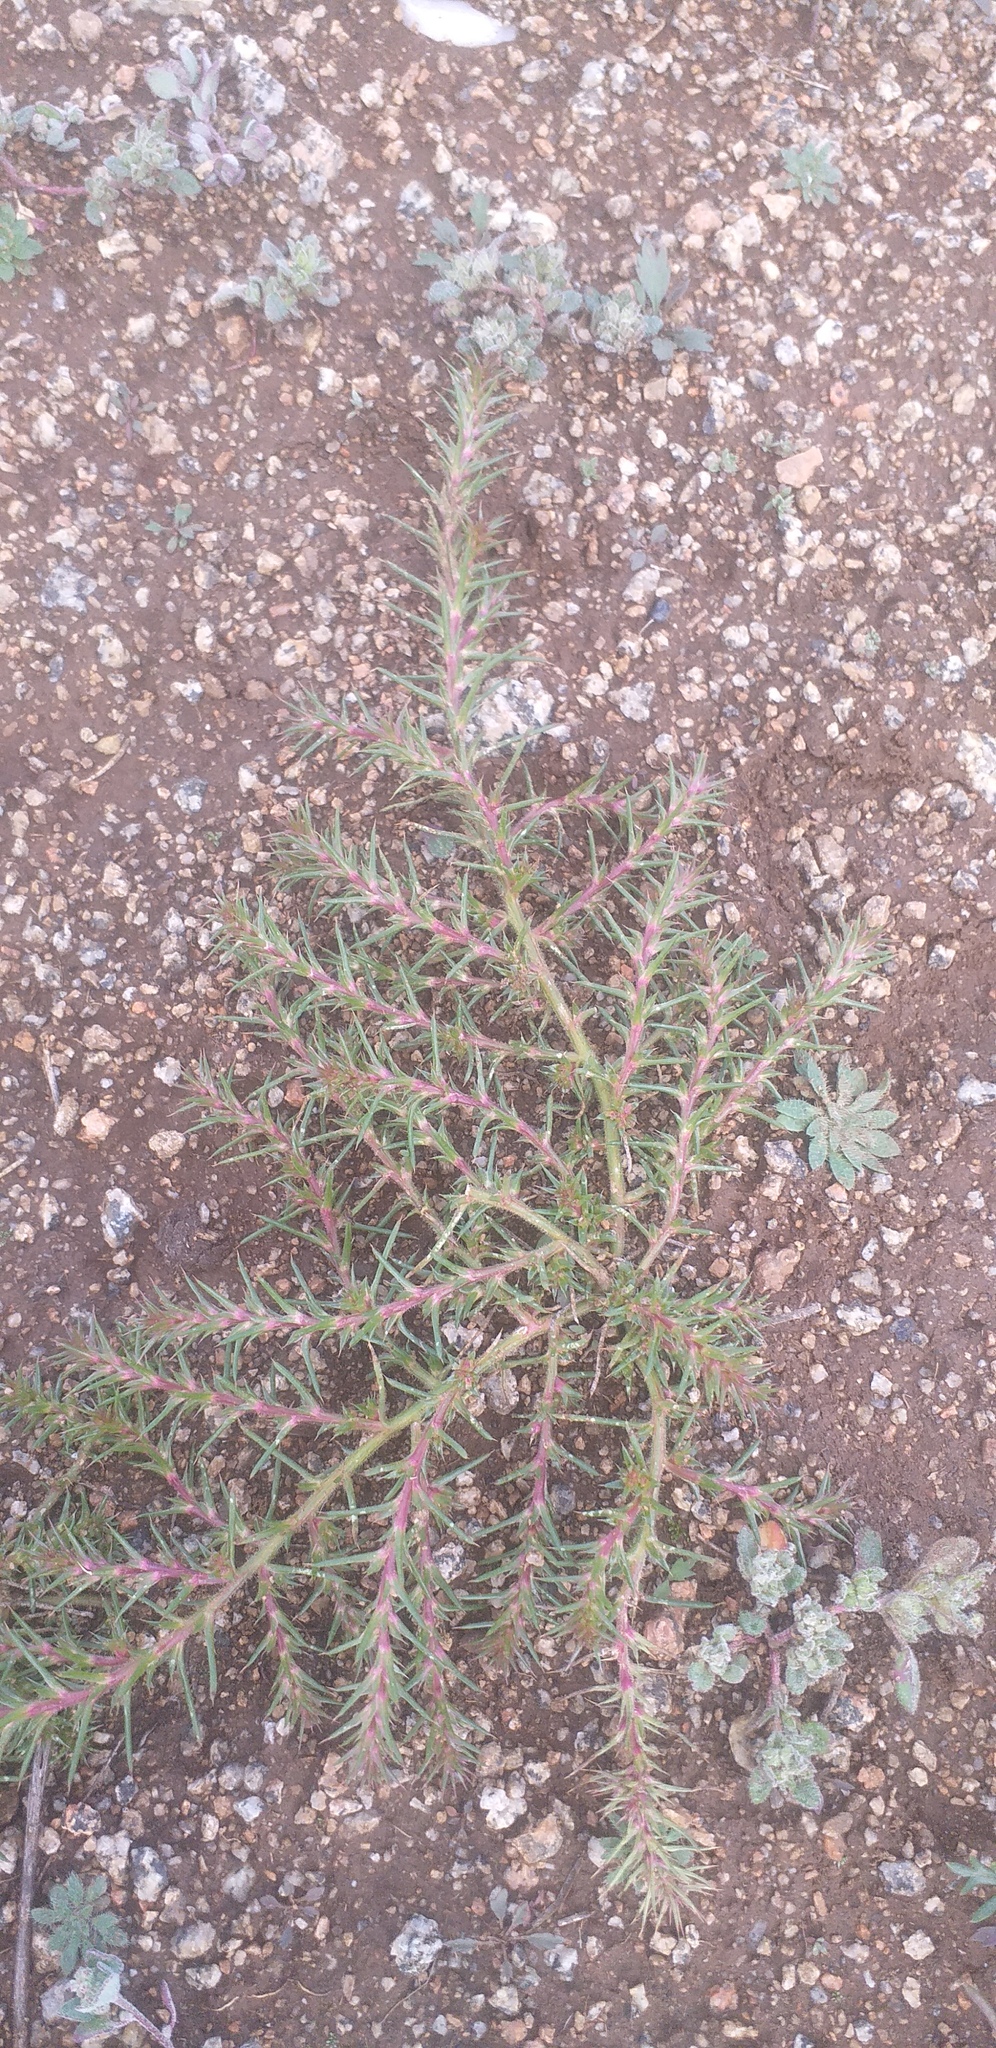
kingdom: Plantae
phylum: Tracheophyta
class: Magnoliopsida
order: Caryophyllales
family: Amaranthaceae
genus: Salsola
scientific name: Salsola tragus
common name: Prickly russian thistle
